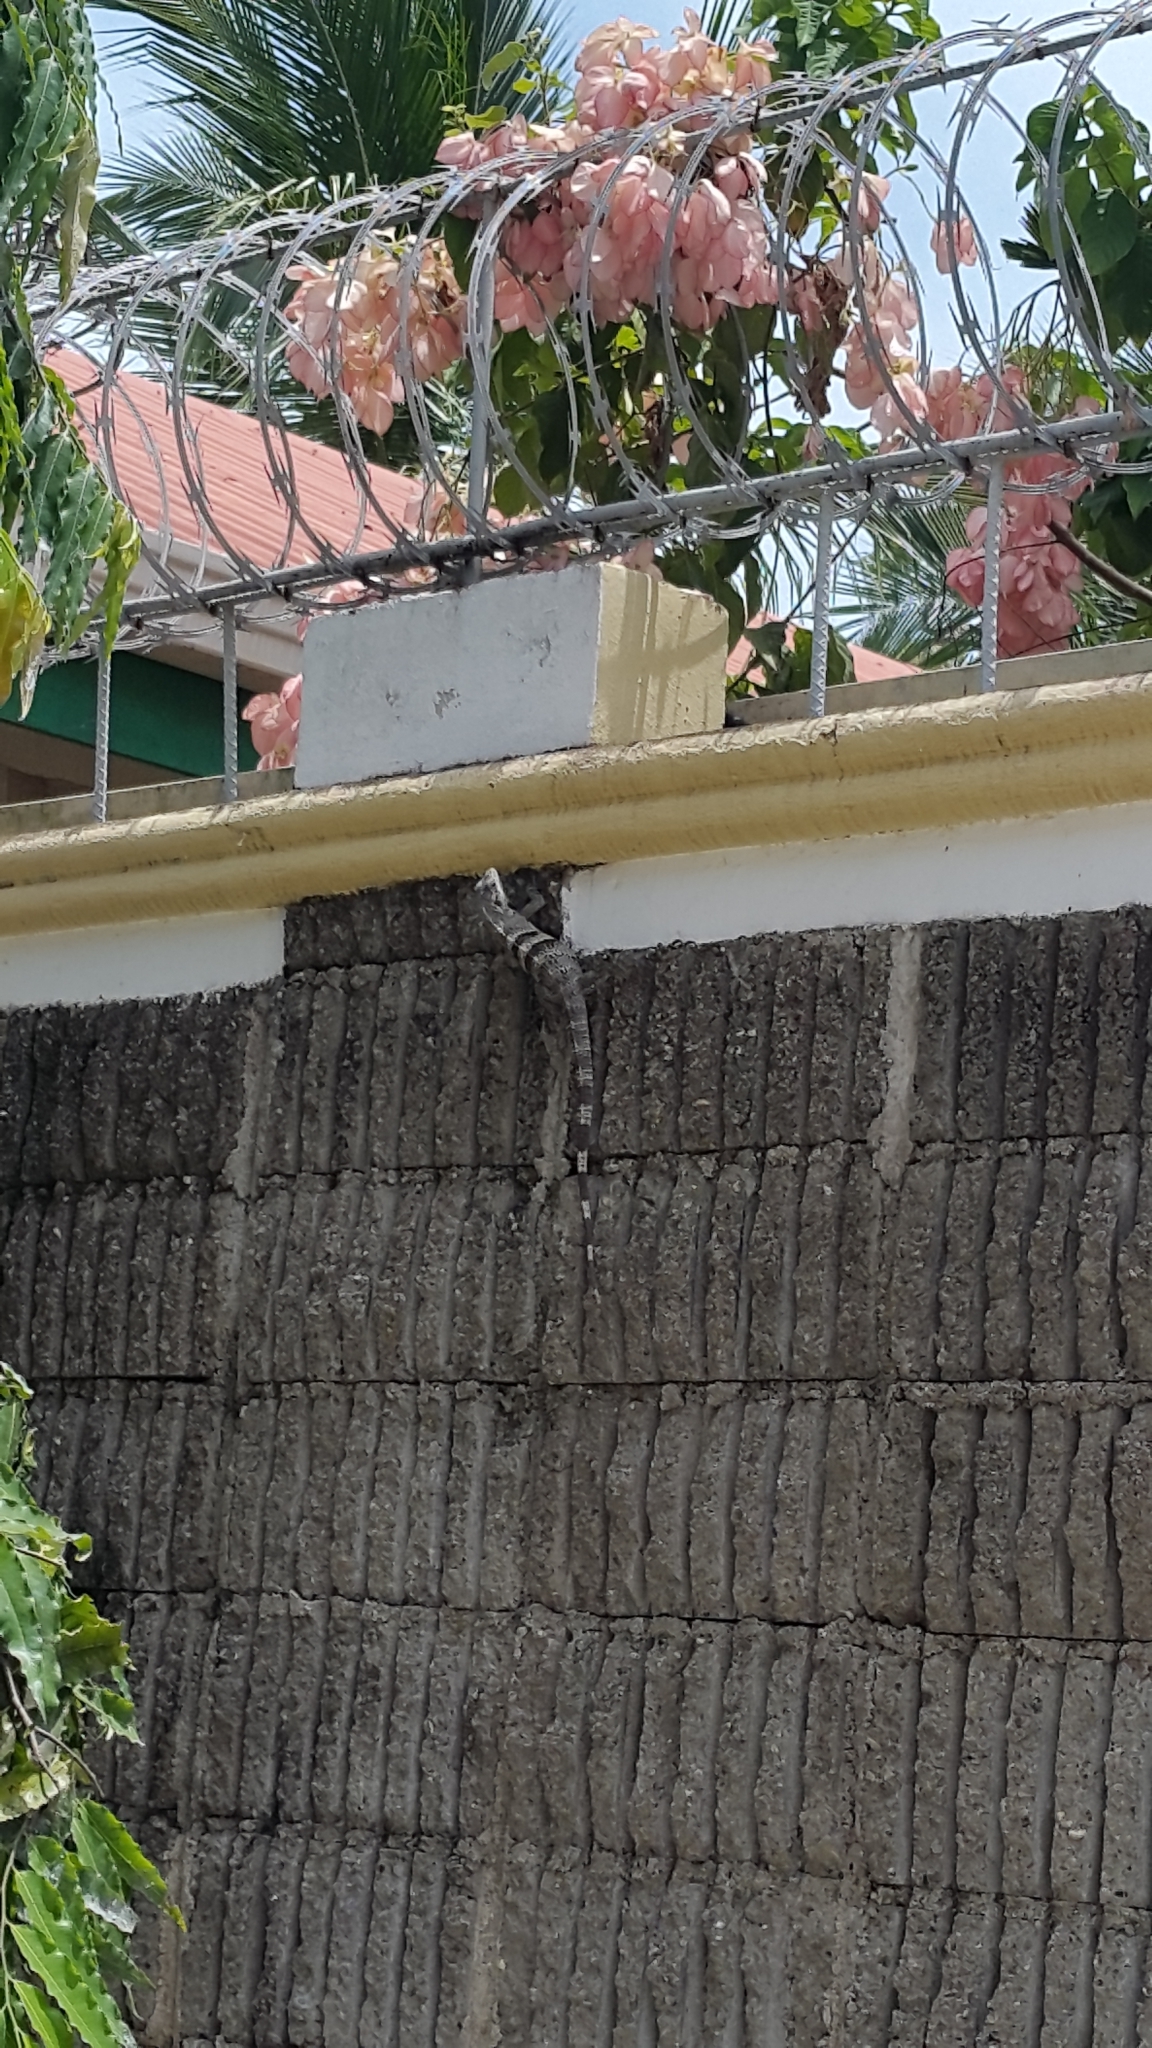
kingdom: Animalia
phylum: Chordata
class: Squamata
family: Iguanidae
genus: Ctenosaura
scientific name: Ctenosaura similis
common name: Black spiny-tailed iguana
